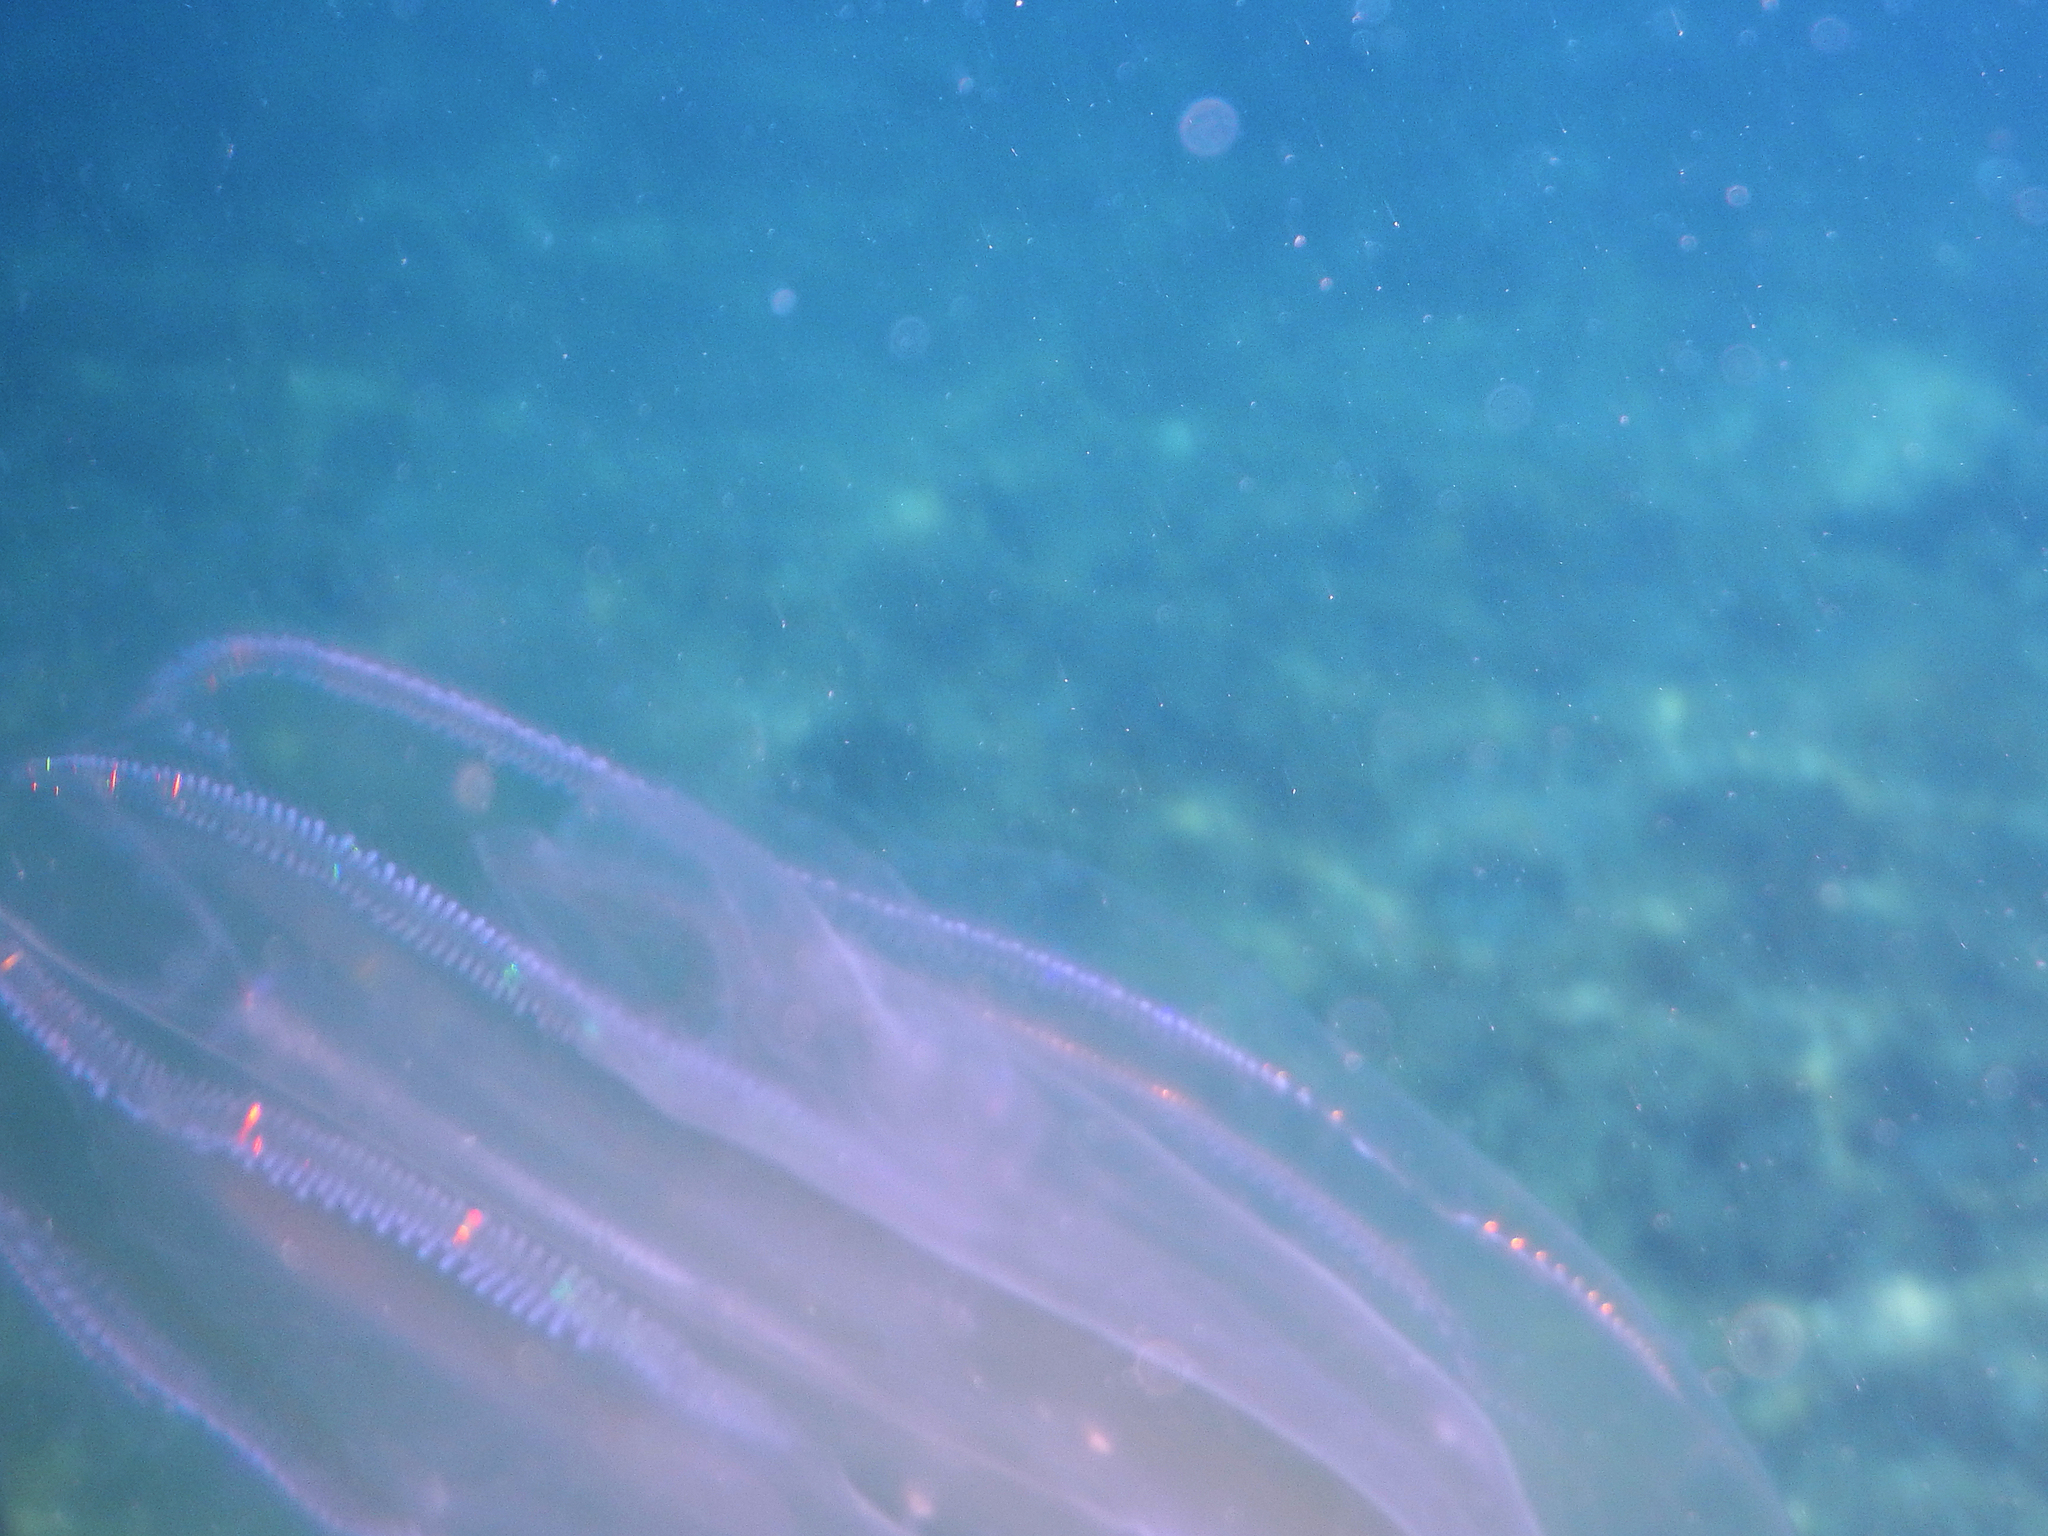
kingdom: Animalia
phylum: Ctenophora
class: Tentaculata
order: Lobata
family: Leucotheidae
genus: Leucothea
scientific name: Leucothea multicornis
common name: Vitreous lobate comb-jelly
